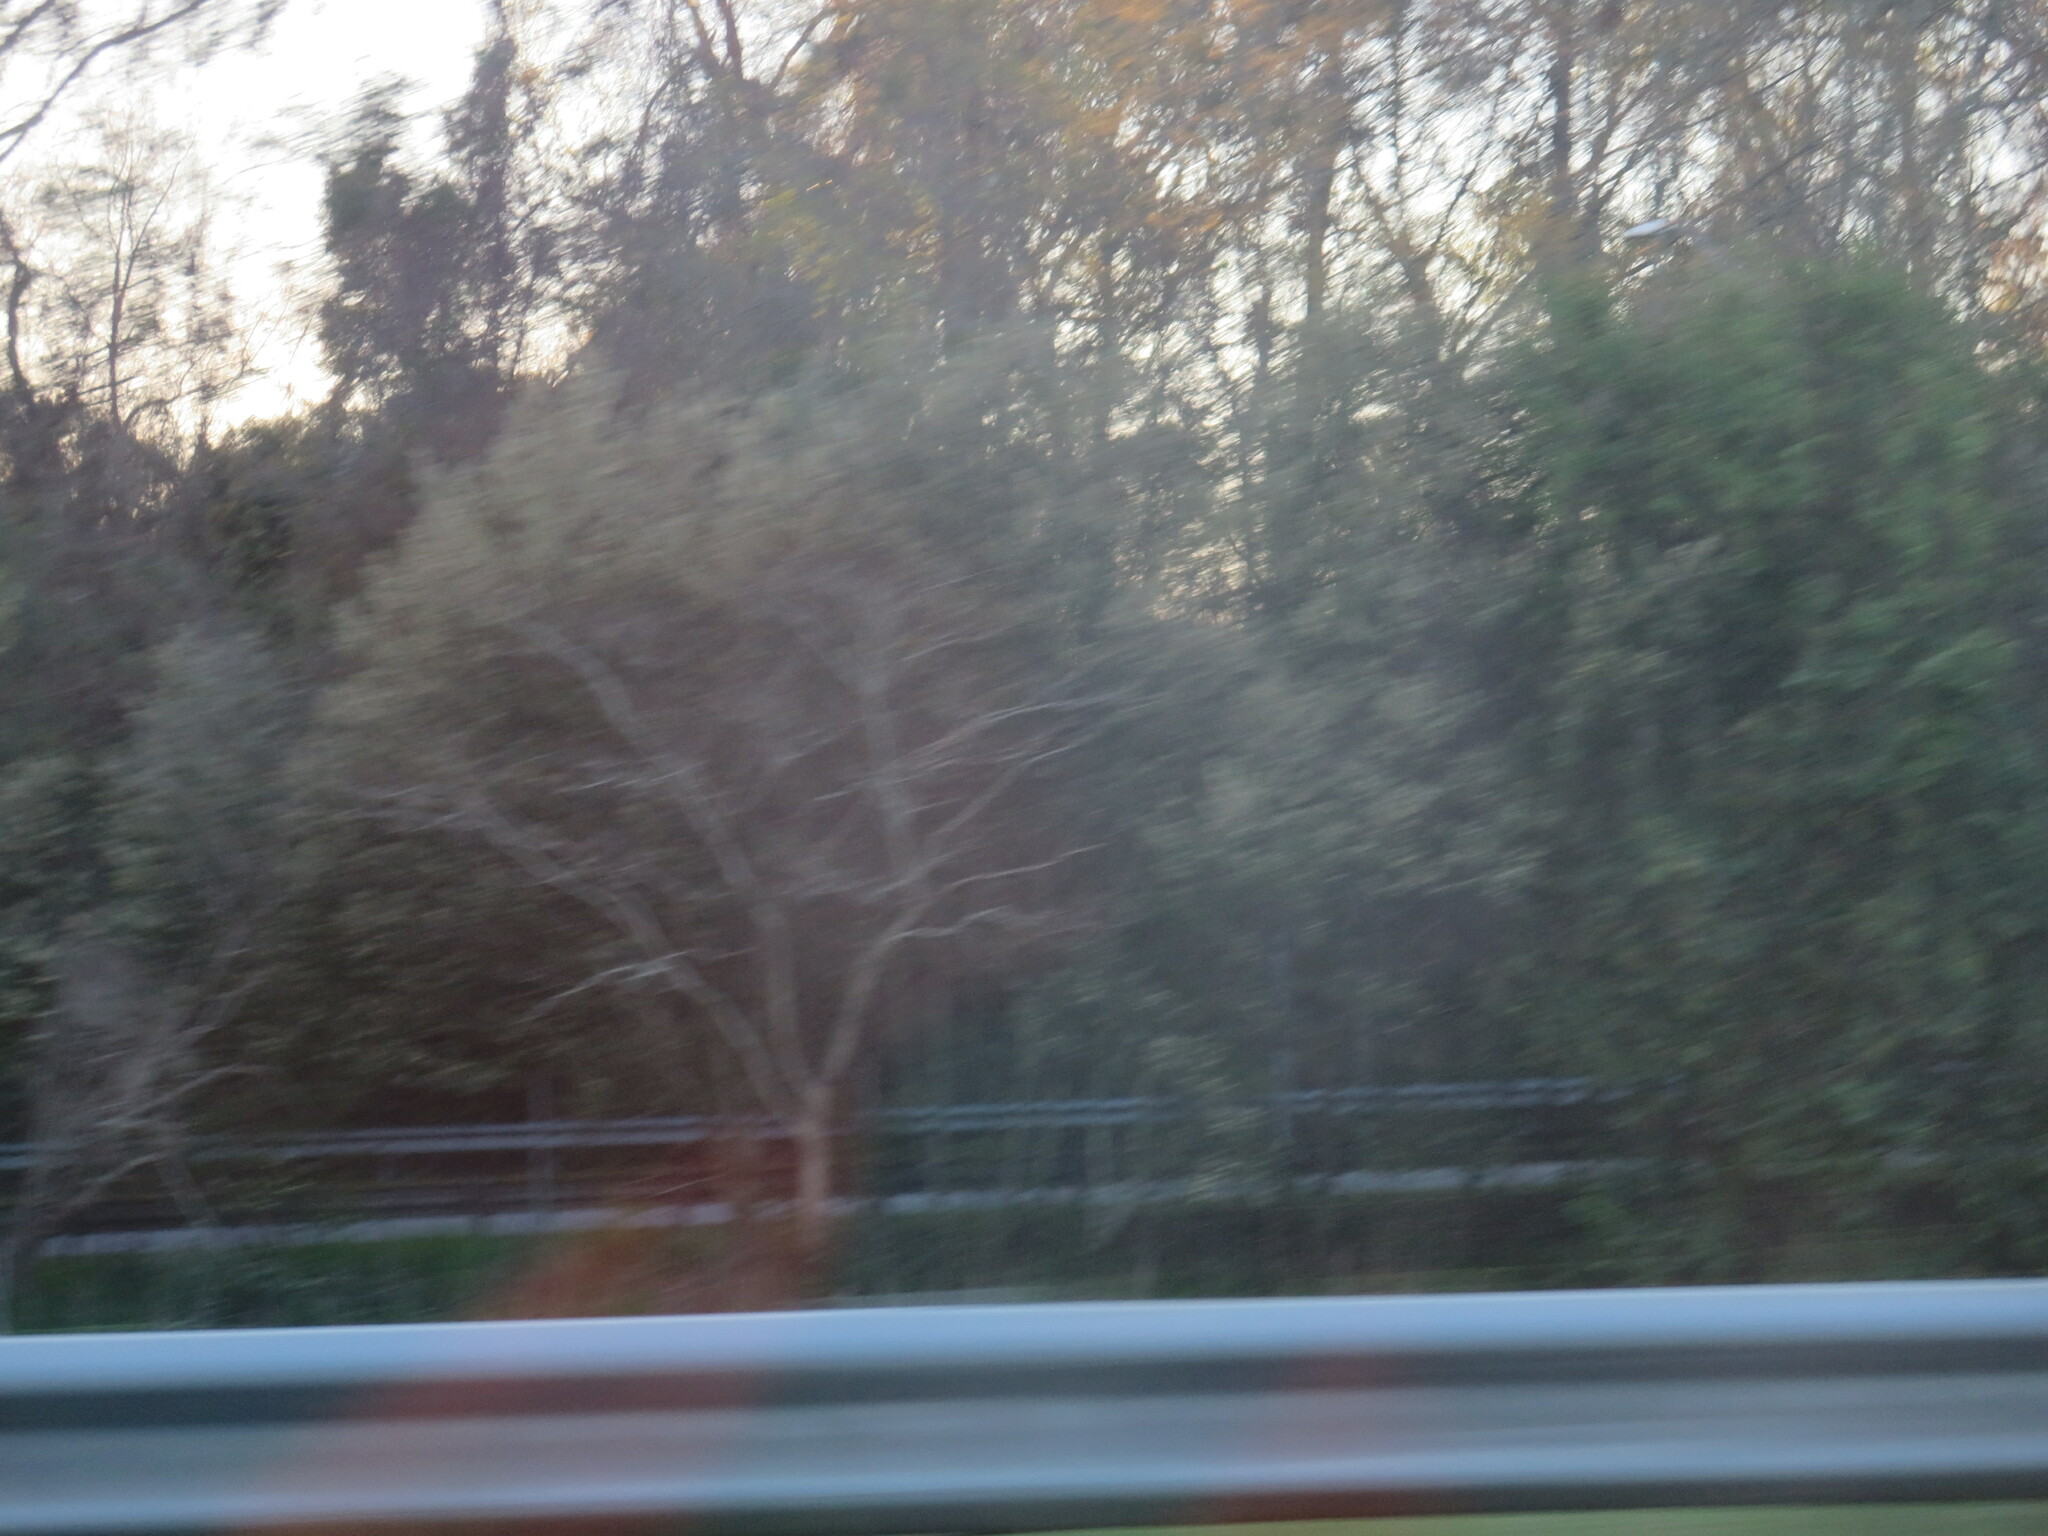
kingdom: Plantae
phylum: Tracheophyta
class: Magnoliopsida
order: Rosales
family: Rosaceae
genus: Prunus
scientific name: Prunus caroliniana
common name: Carolina laurel cherry
